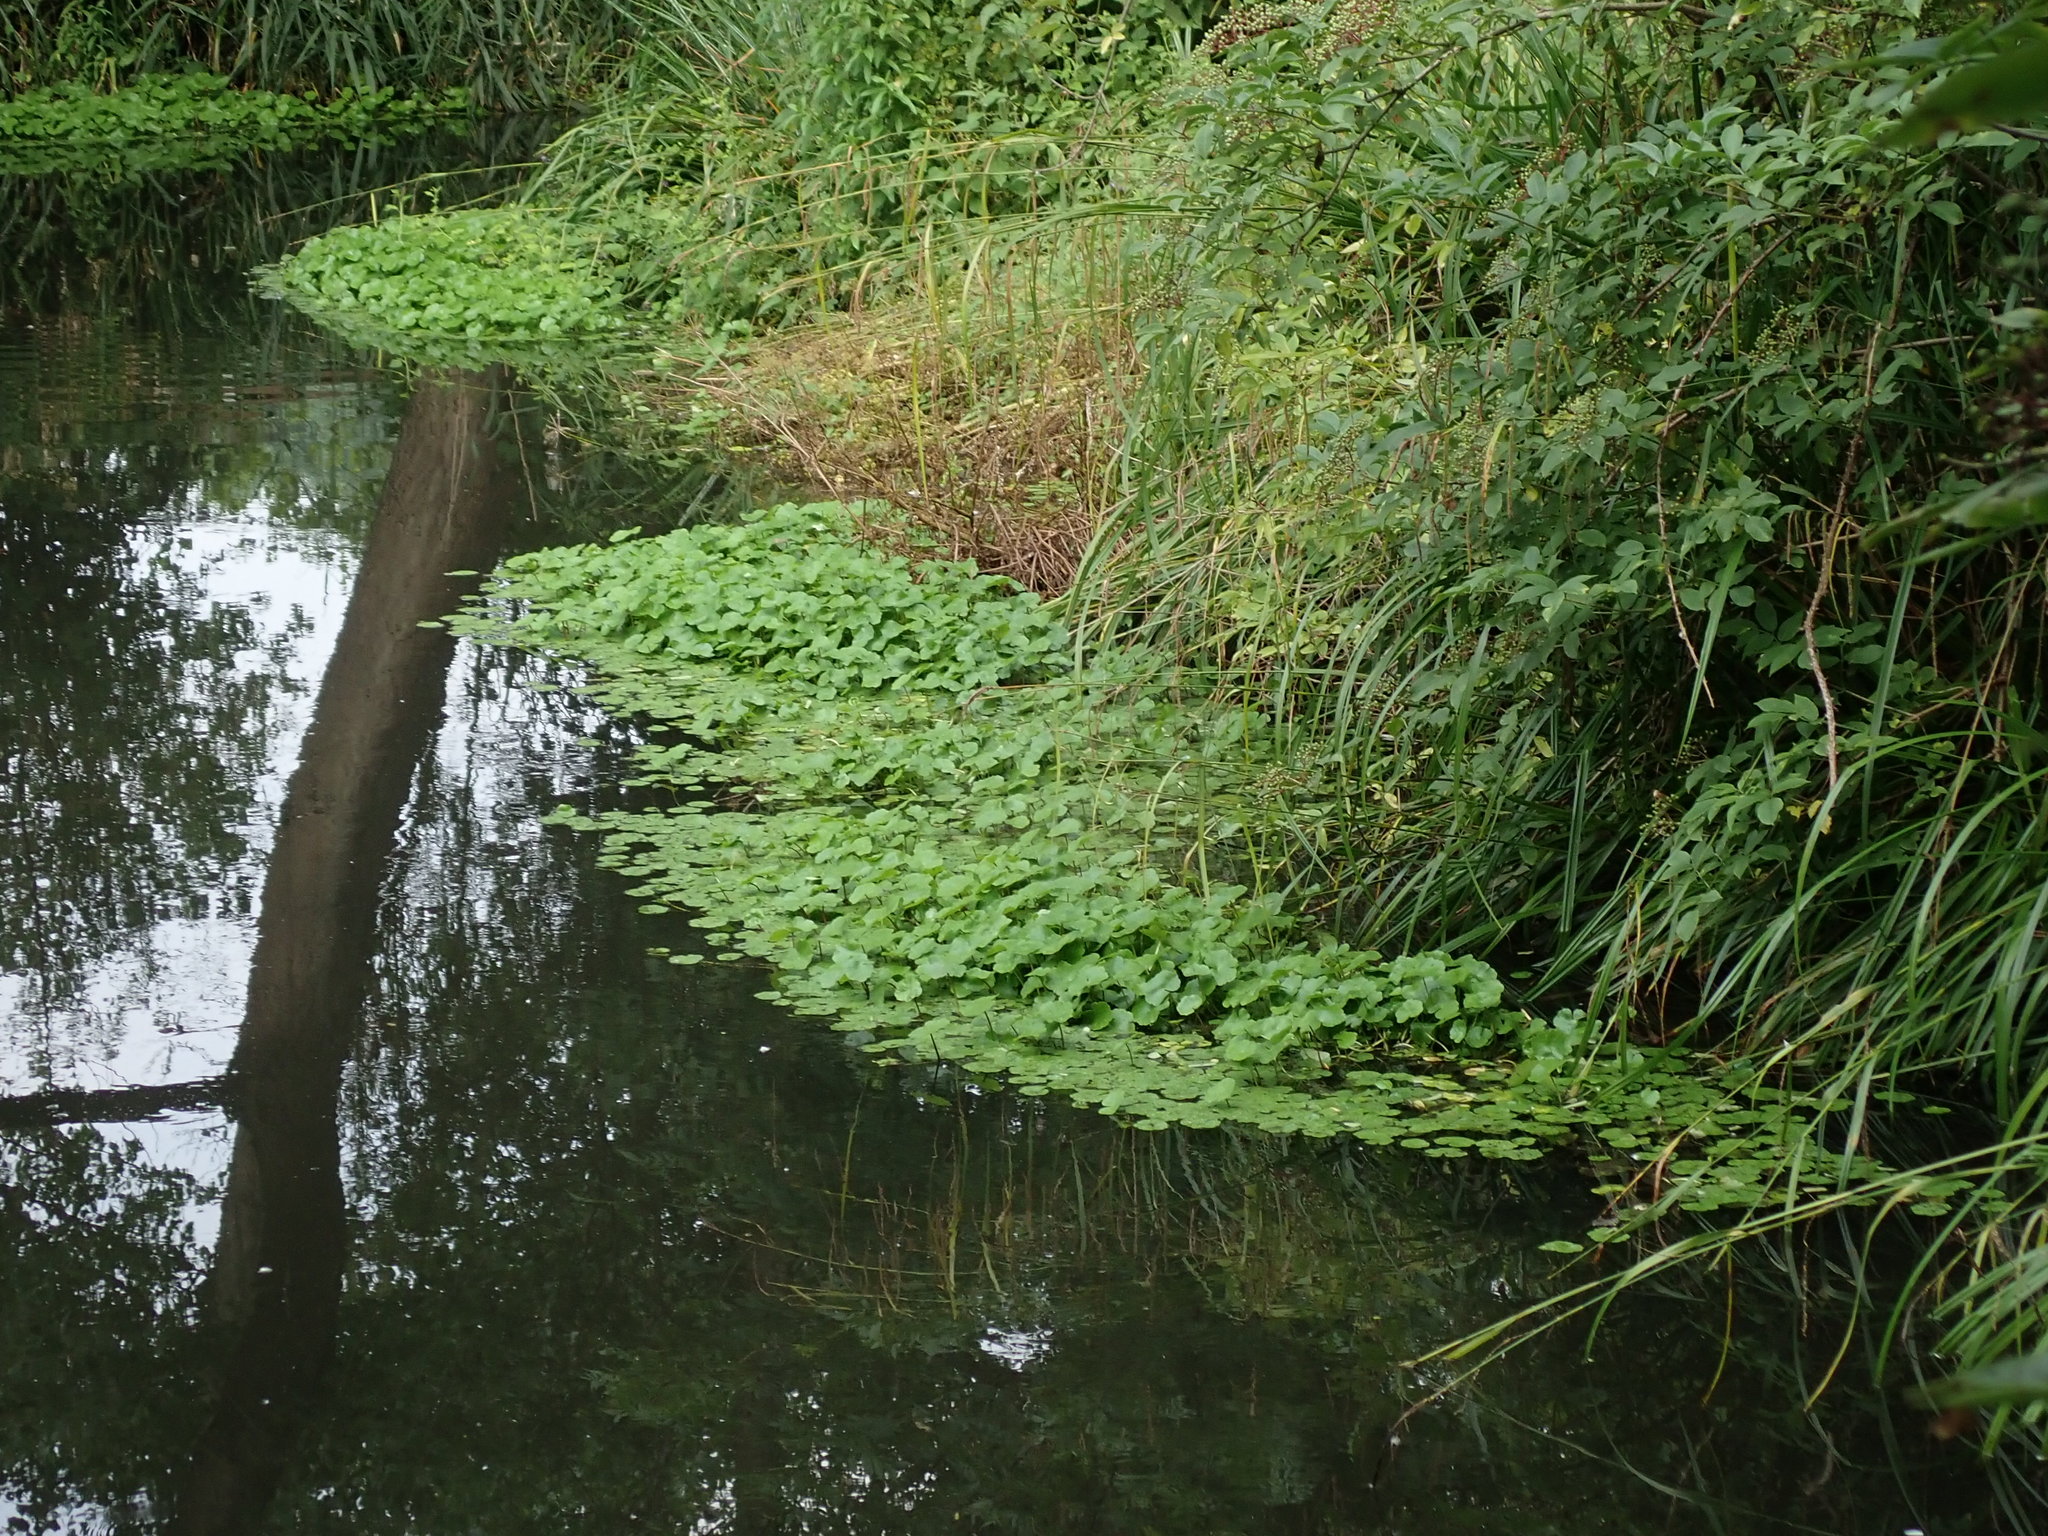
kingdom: Plantae
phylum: Tracheophyta
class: Magnoliopsida
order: Apiales
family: Araliaceae
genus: Hydrocotyle
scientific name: Hydrocotyle ranunculoides
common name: Floating pennywort
